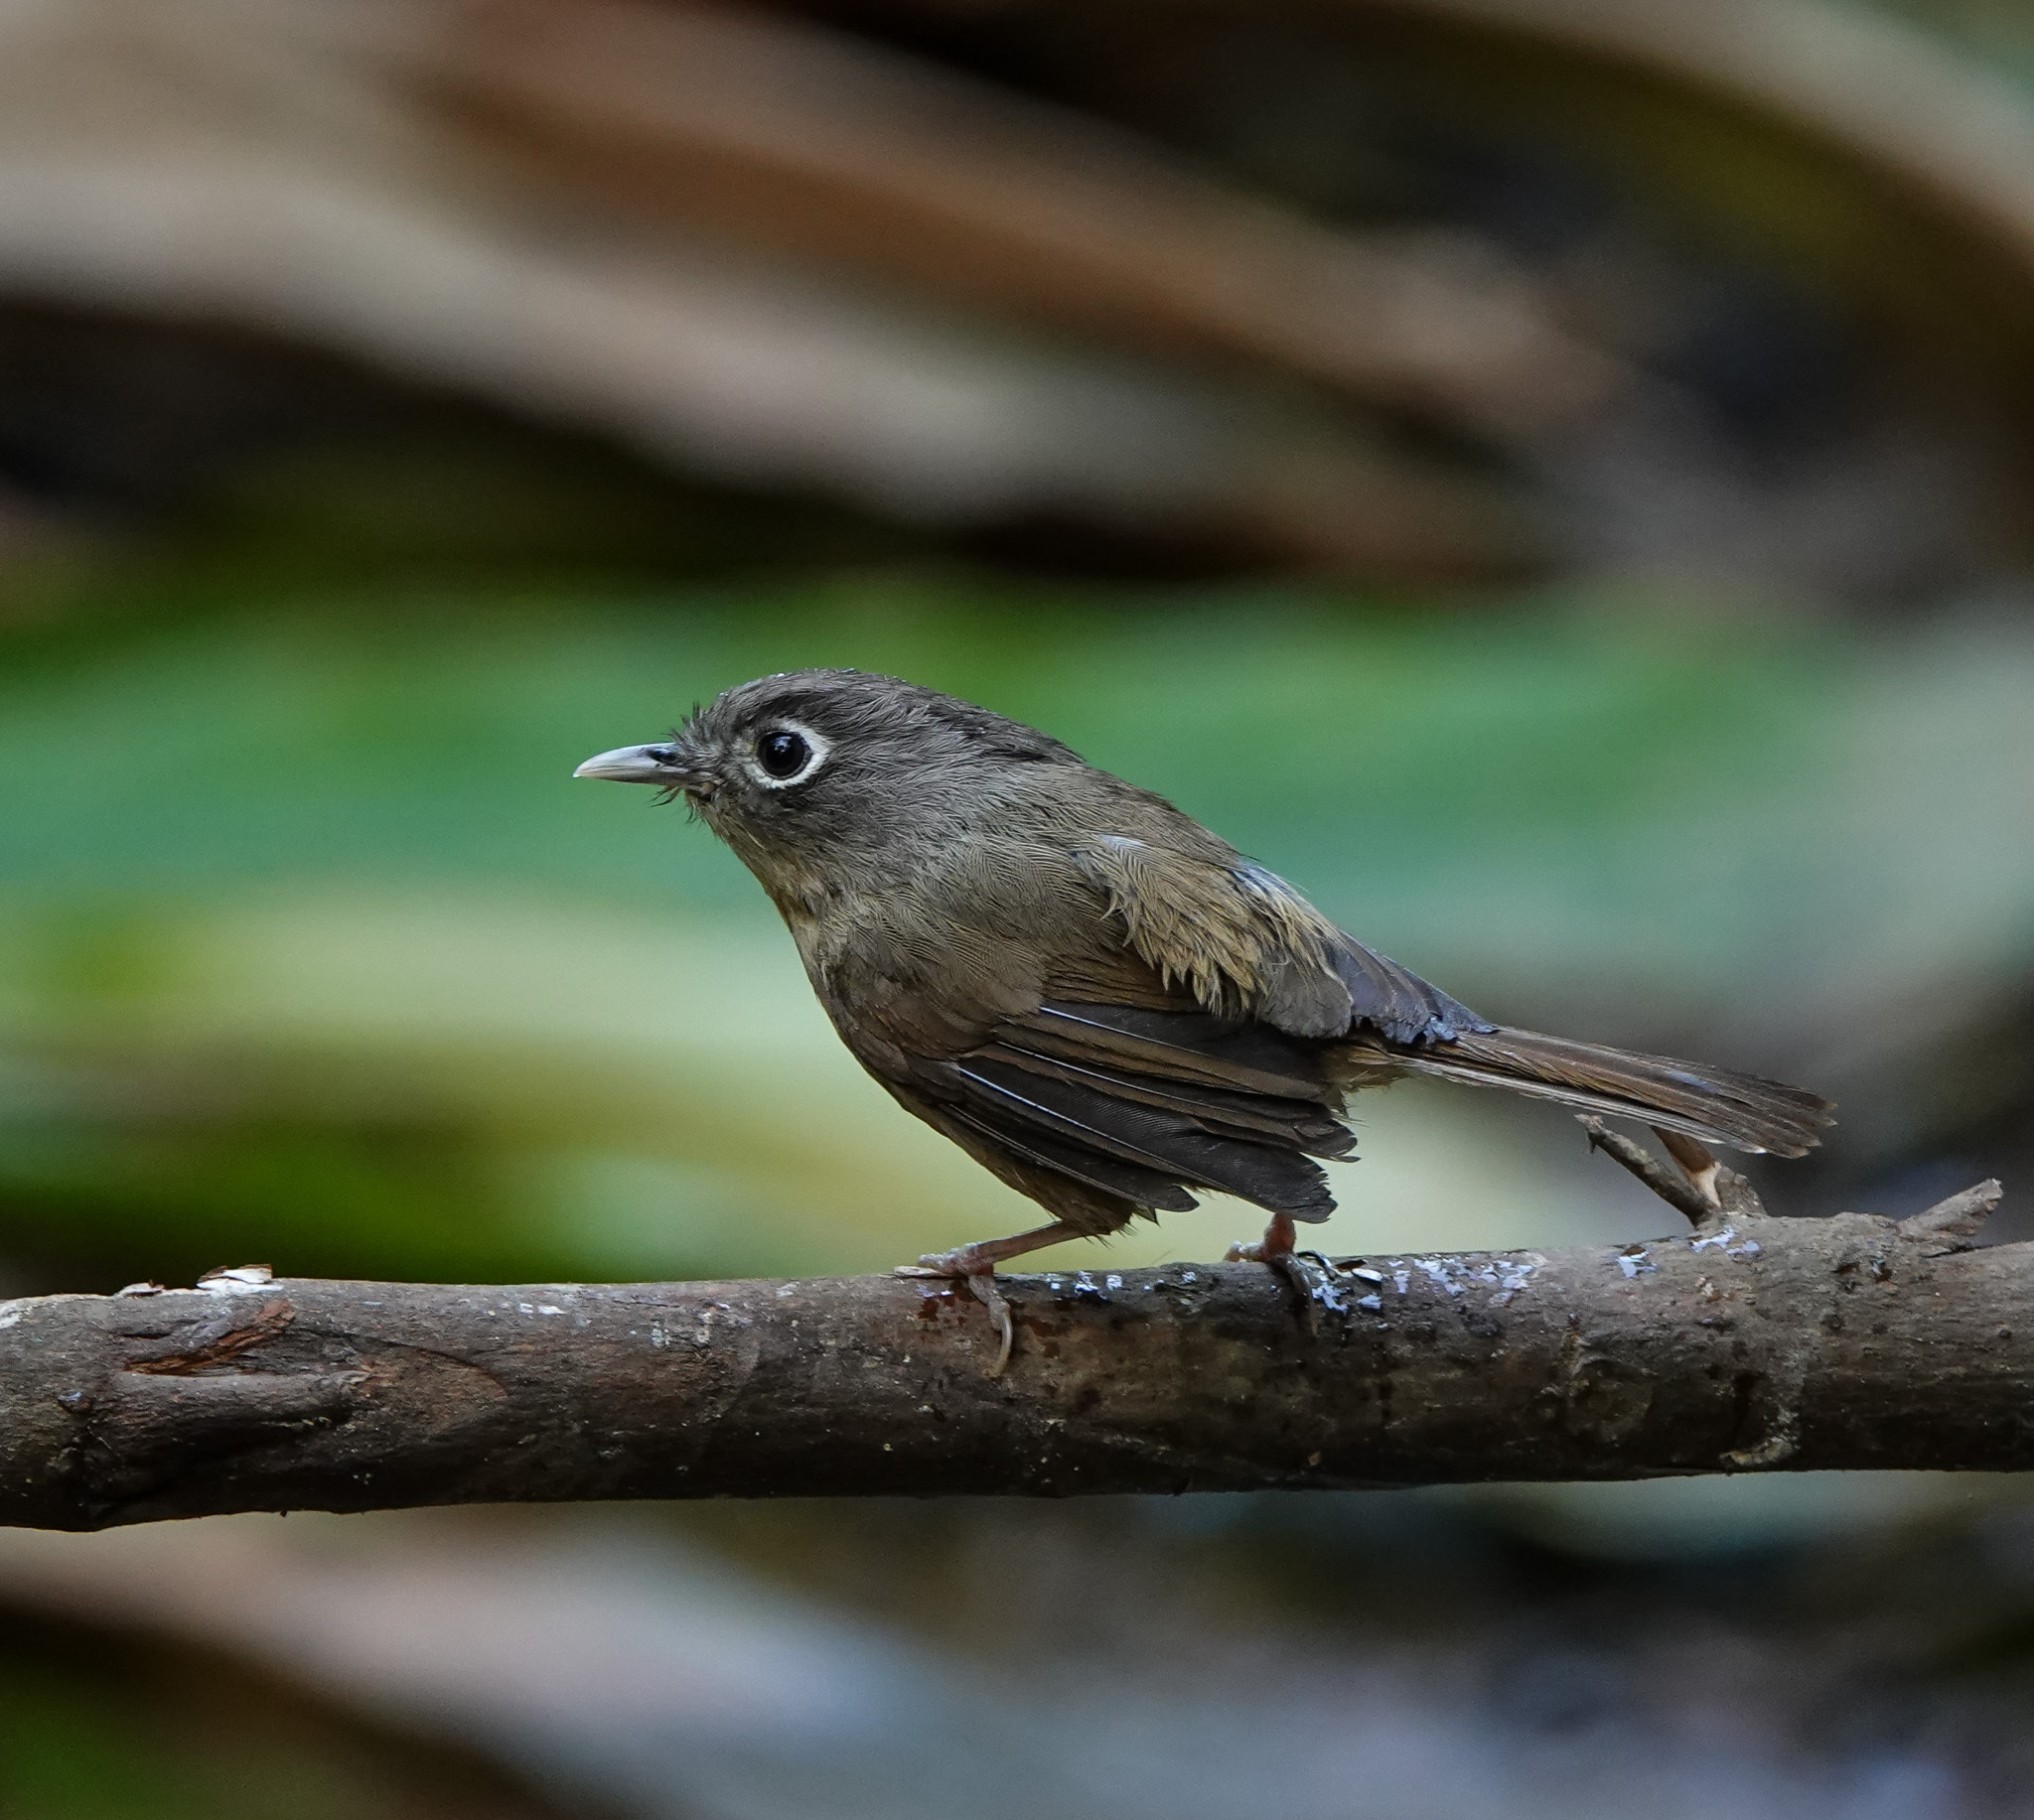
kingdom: Animalia
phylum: Chordata
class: Aves
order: Passeriformes
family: Pellorneidae
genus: Alcippe
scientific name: Alcippe nipalensis
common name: Nepal fulvetta
